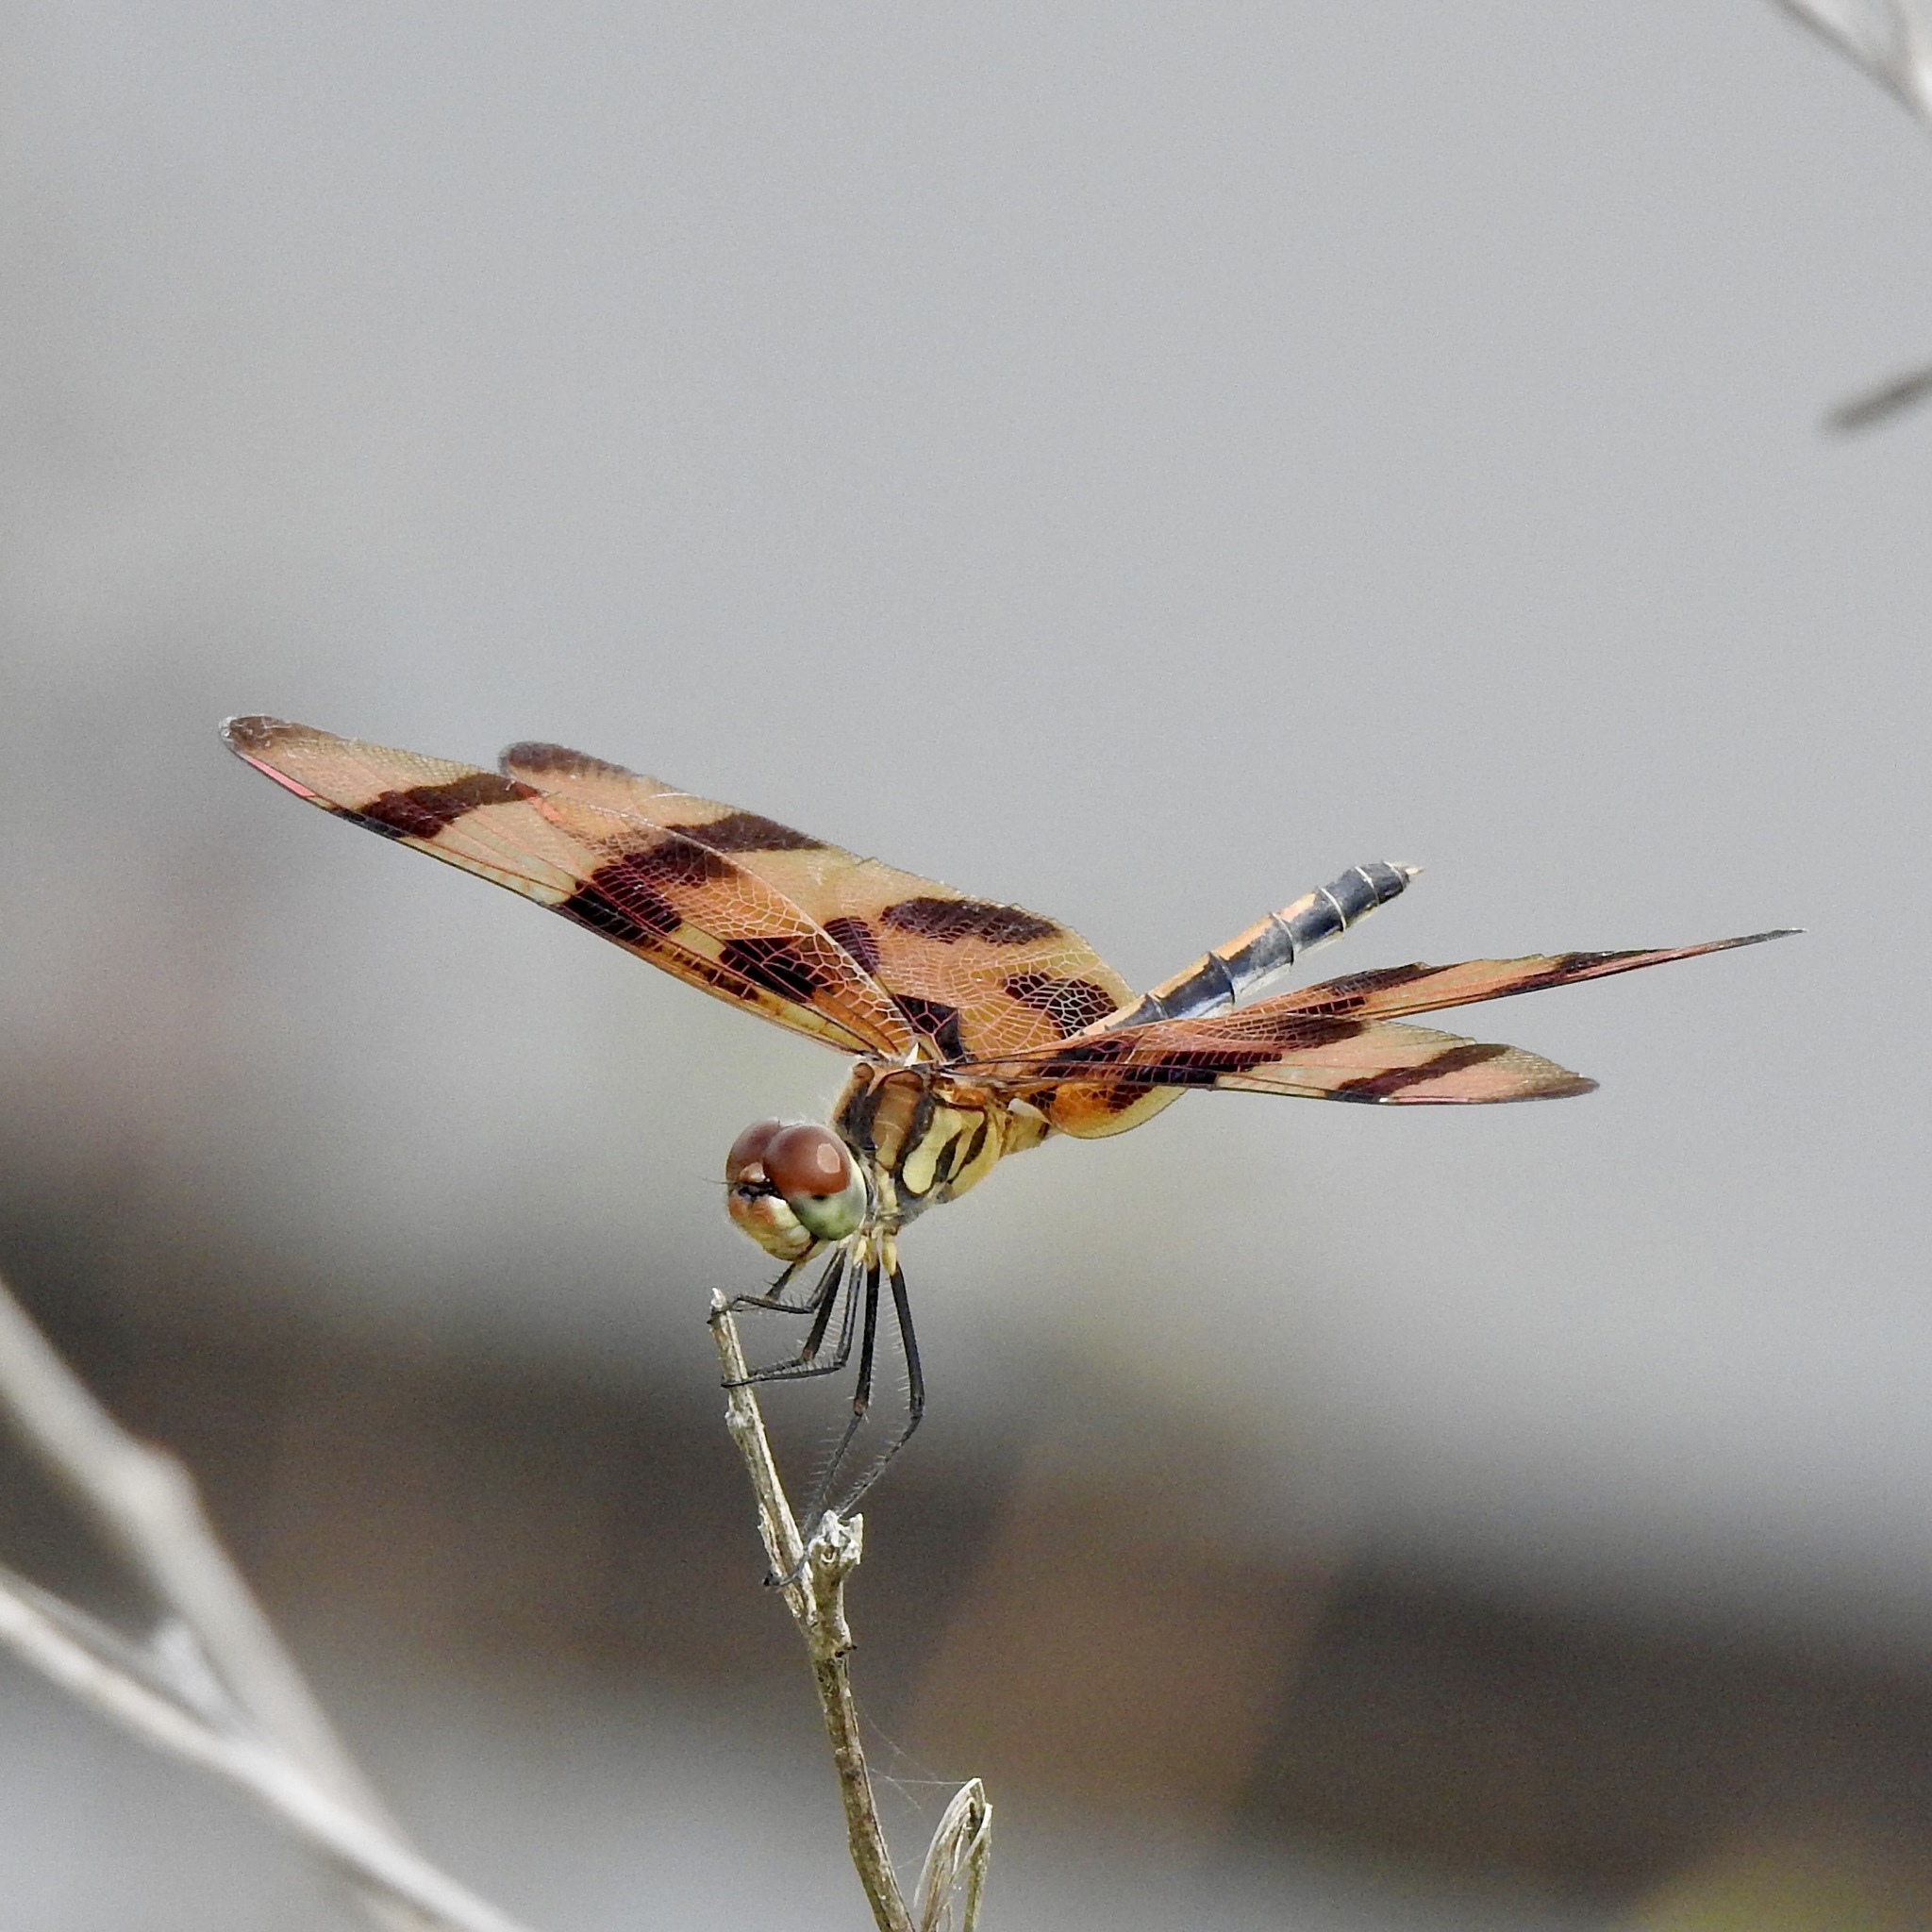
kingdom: Animalia
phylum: Arthropoda
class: Insecta
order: Odonata
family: Libellulidae
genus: Celithemis
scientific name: Celithemis eponina
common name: Halloween pennant
